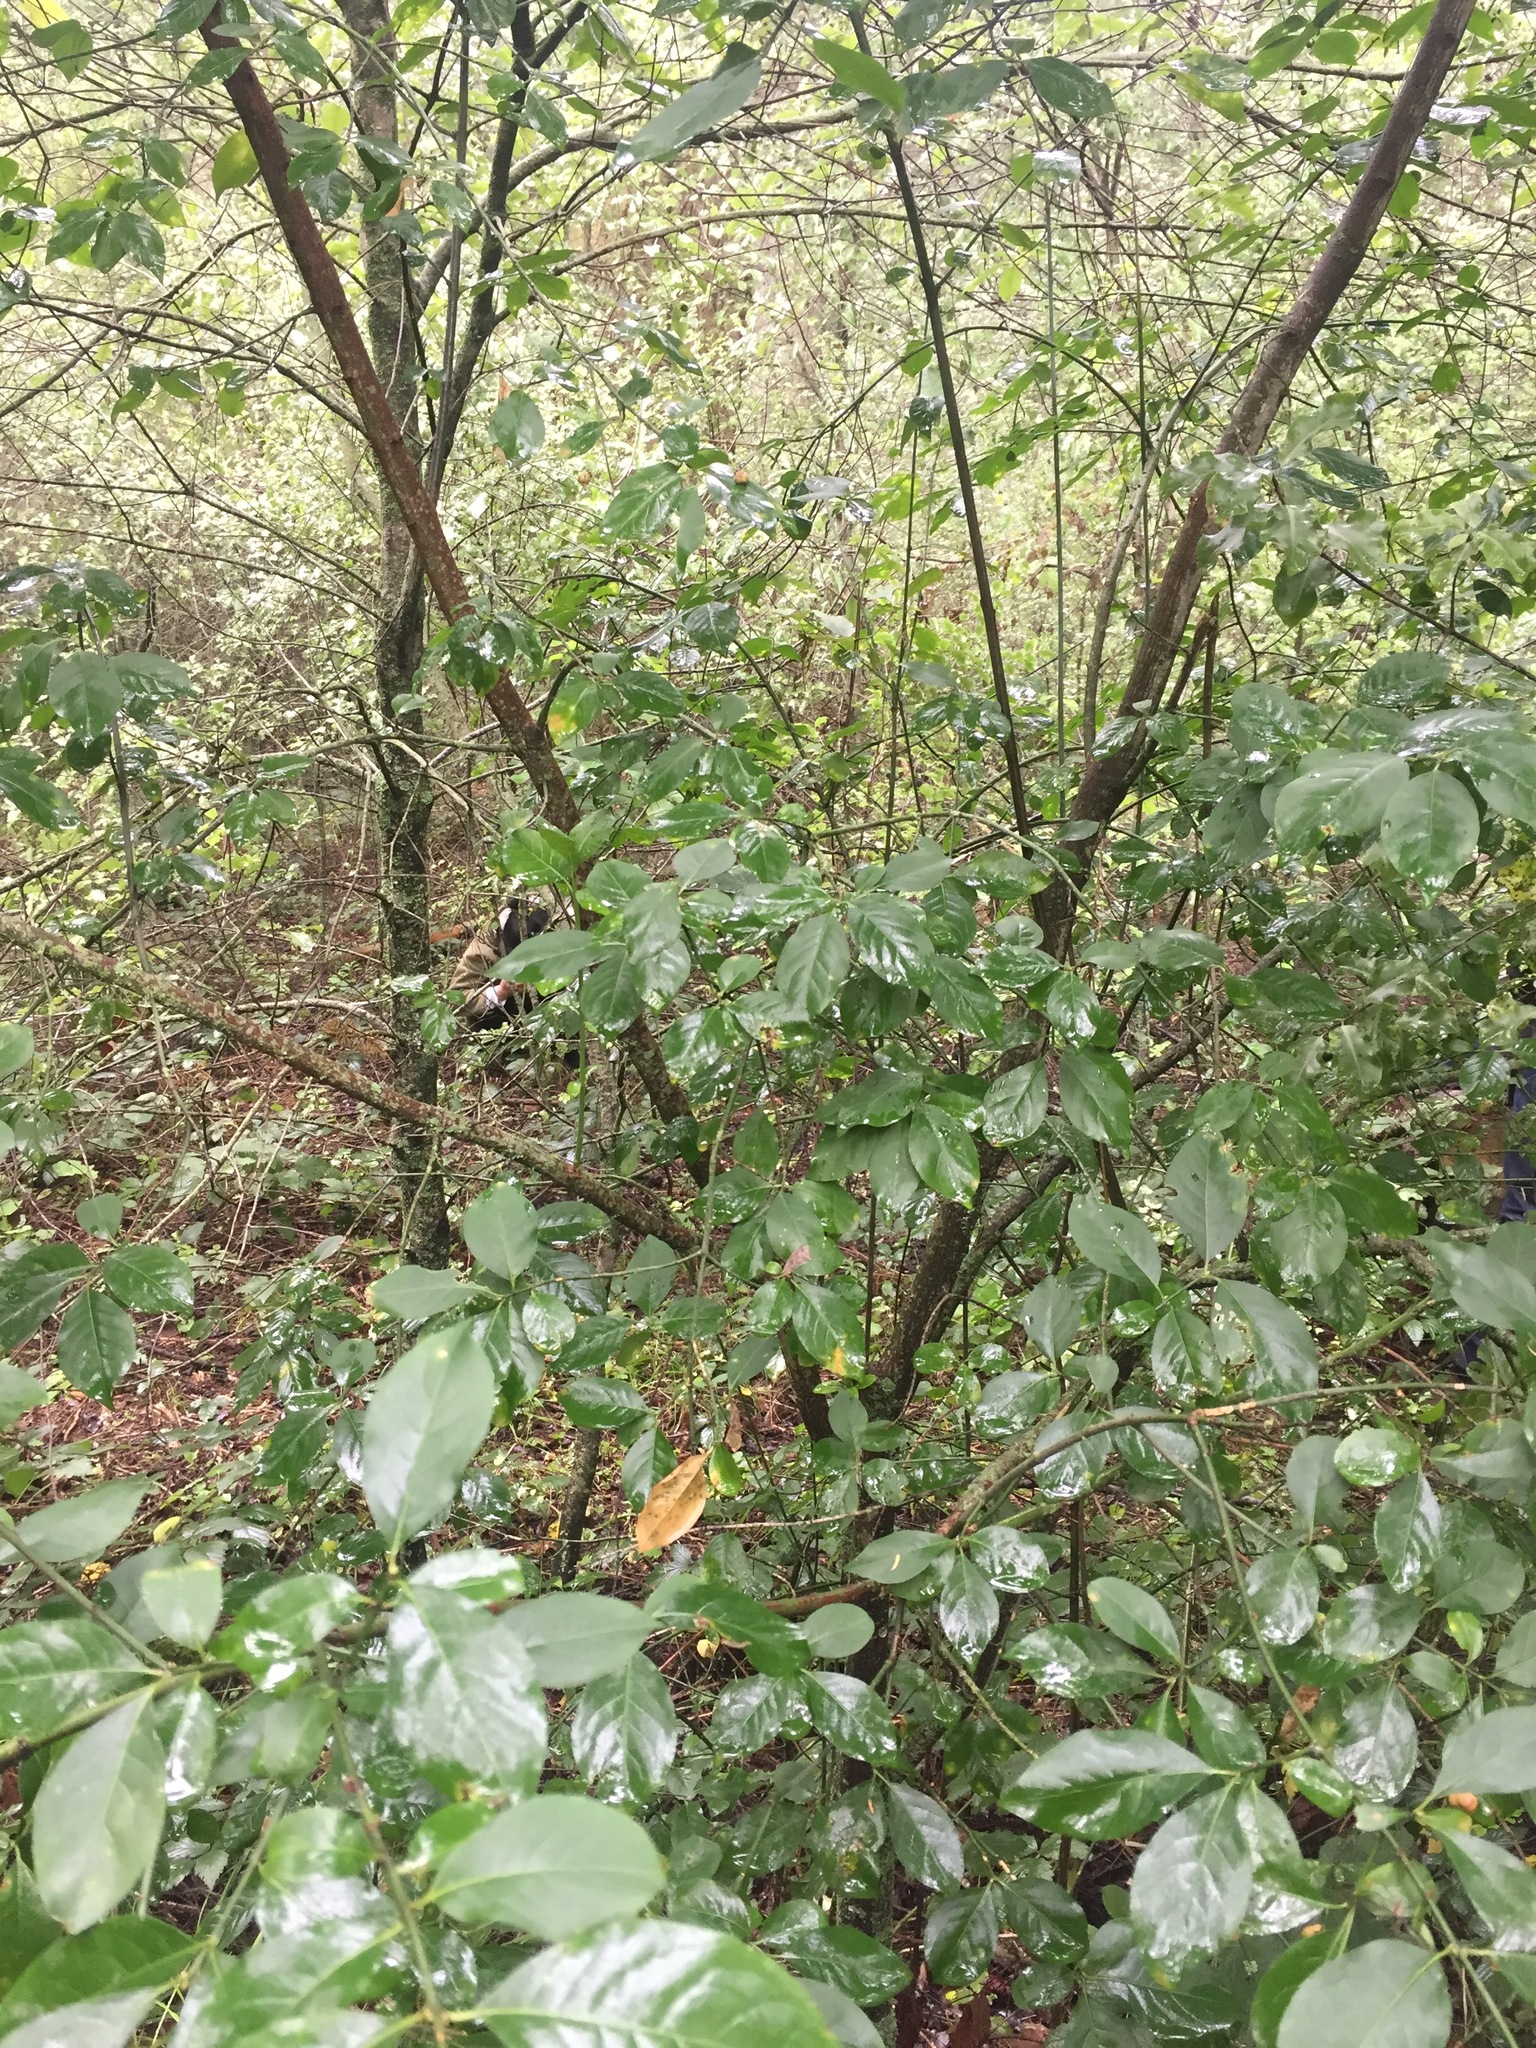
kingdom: Plantae
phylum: Tracheophyta
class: Magnoliopsida
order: Celastrales
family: Celastraceae
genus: Euonymus
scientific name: Euonymus europaeus
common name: Spindle
